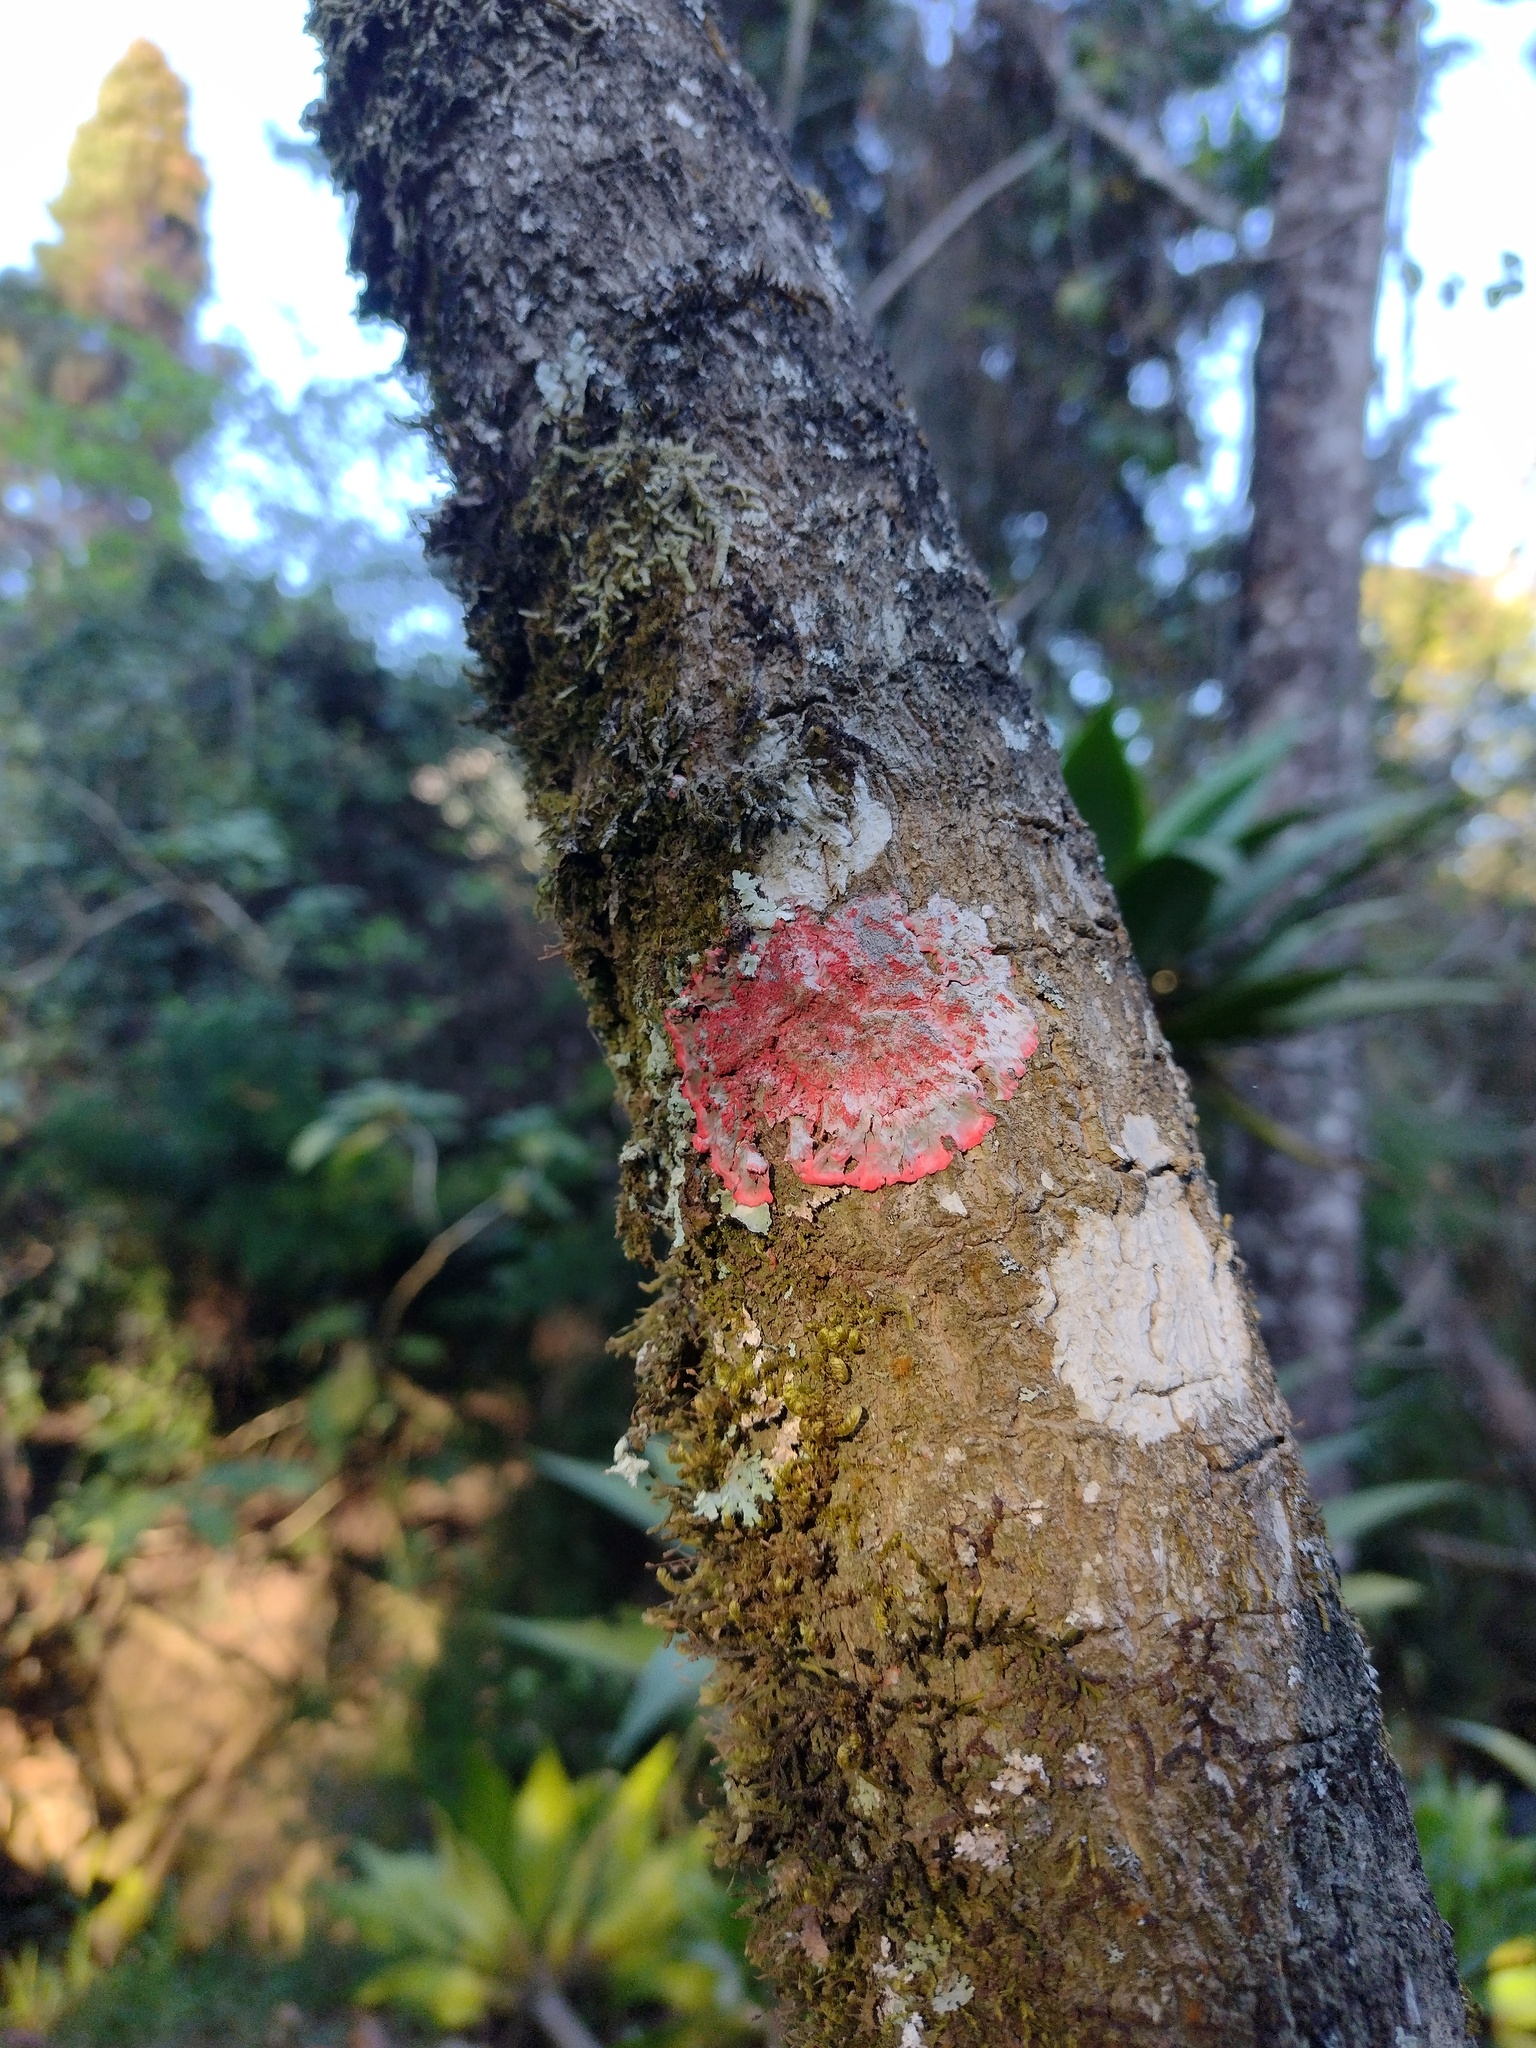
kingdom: Fungi
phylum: Ascomycota
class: Arthoniomycetes
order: Arthoniales
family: Arthoniaceae
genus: Herpothallon
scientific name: Herpothallon rubrocinctum
